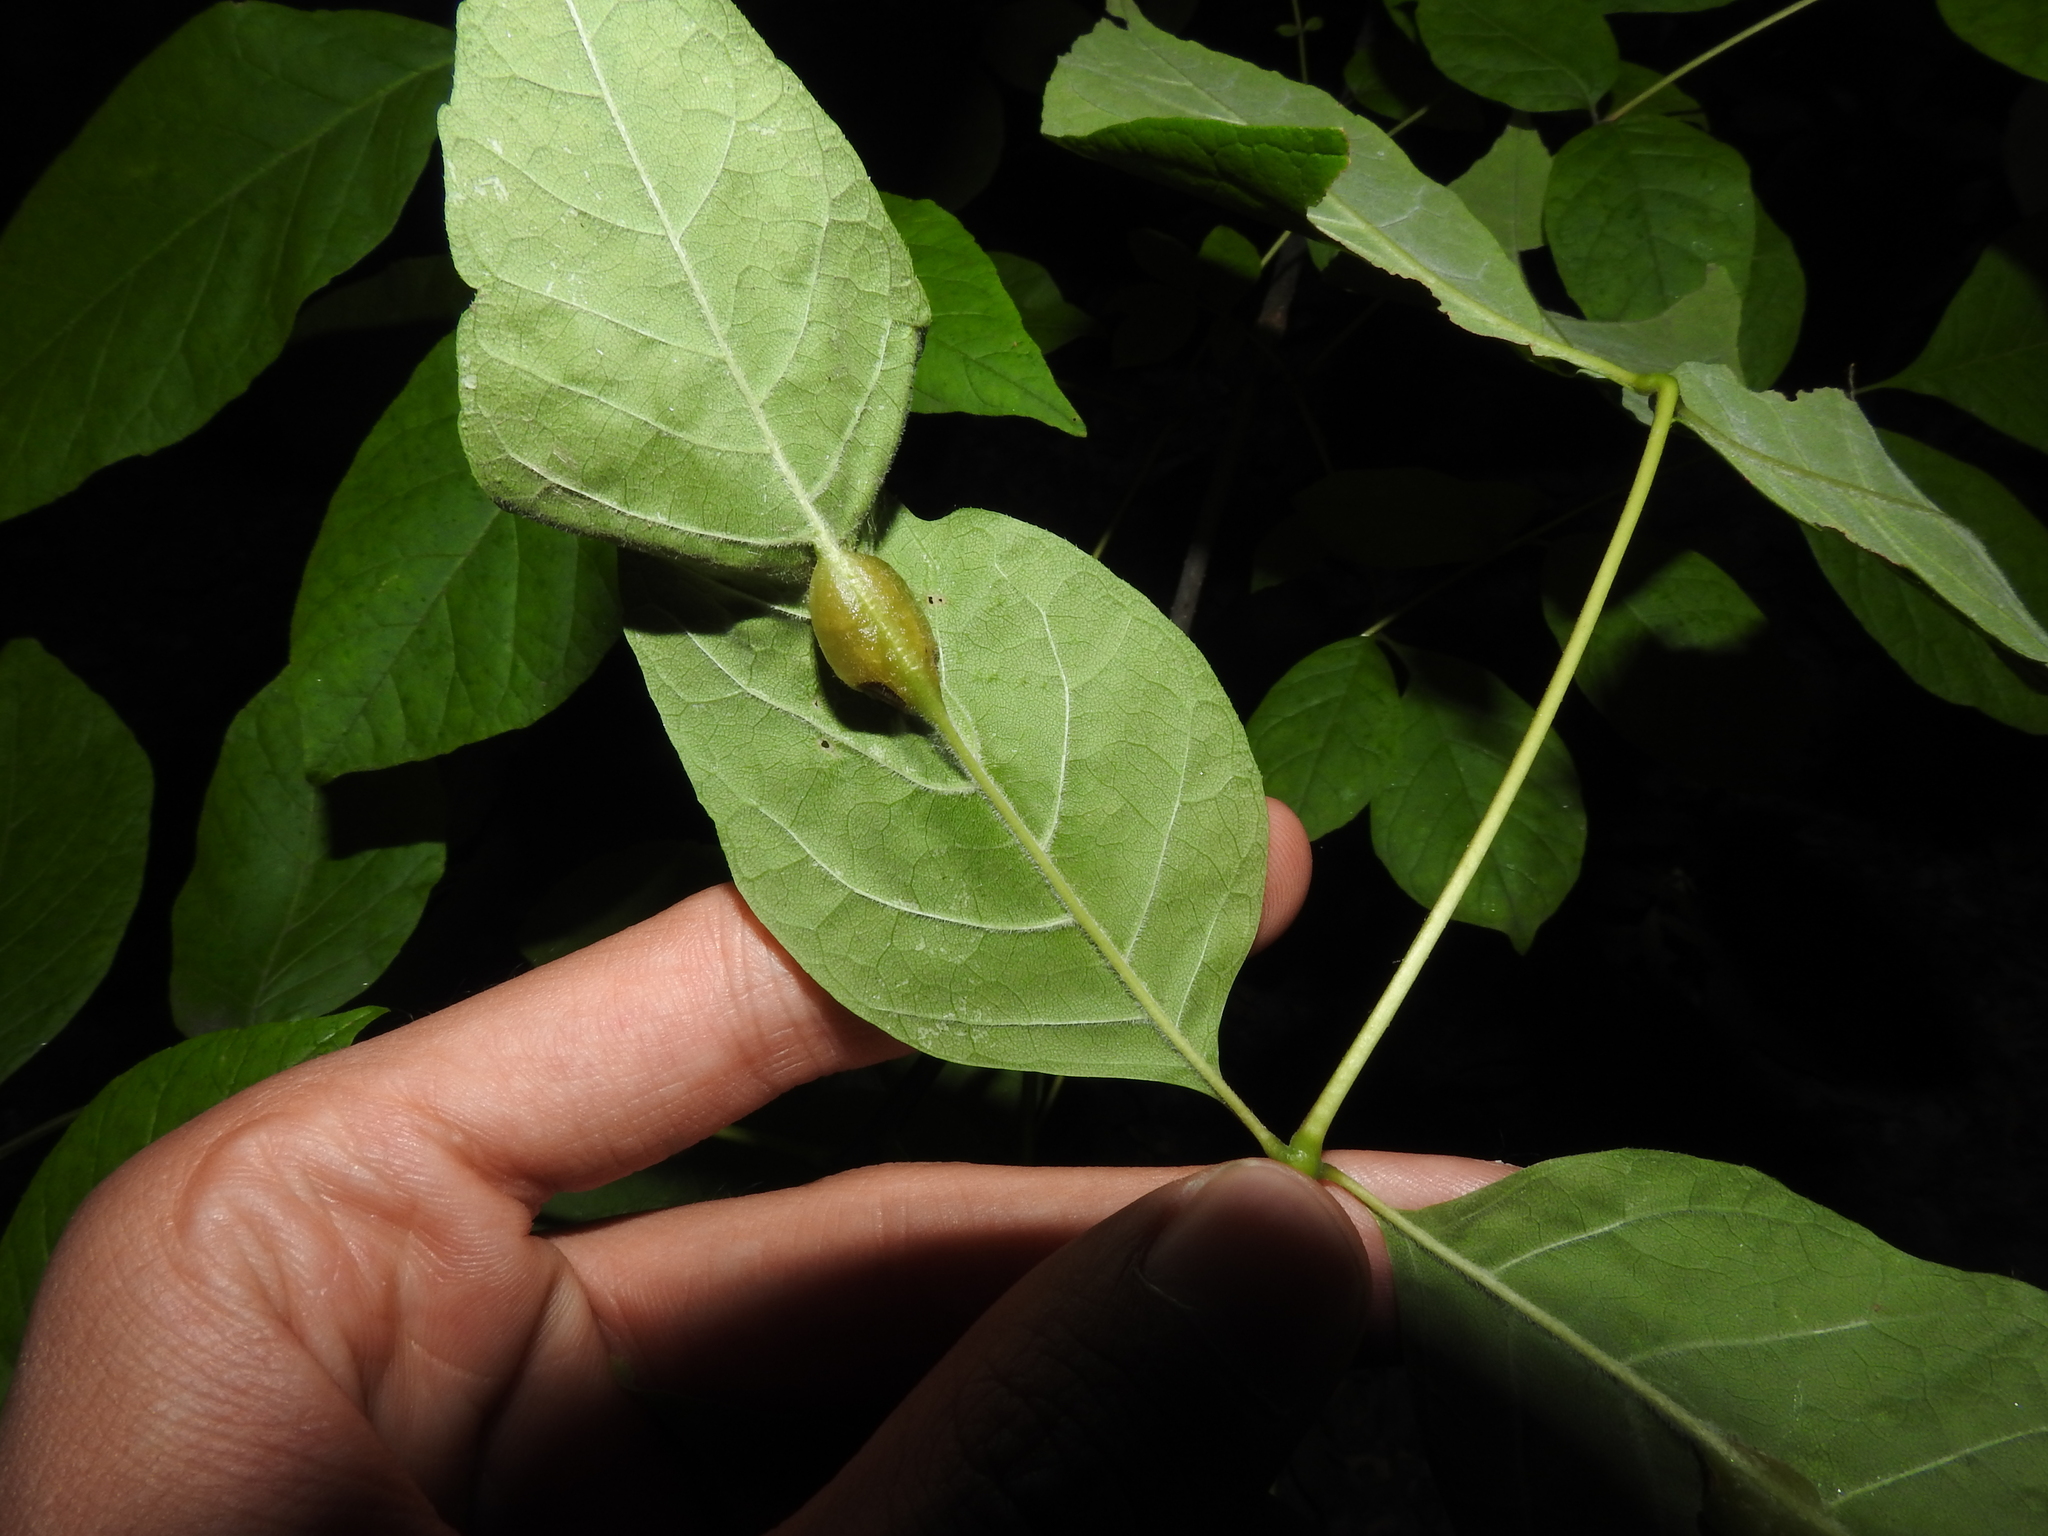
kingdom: Animalia
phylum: Arthropoda
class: Insecta
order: Diptera
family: Cecidomyiidae
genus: Dasineura
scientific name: Dasineura tumidosae
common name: Ash petiole gall midge
